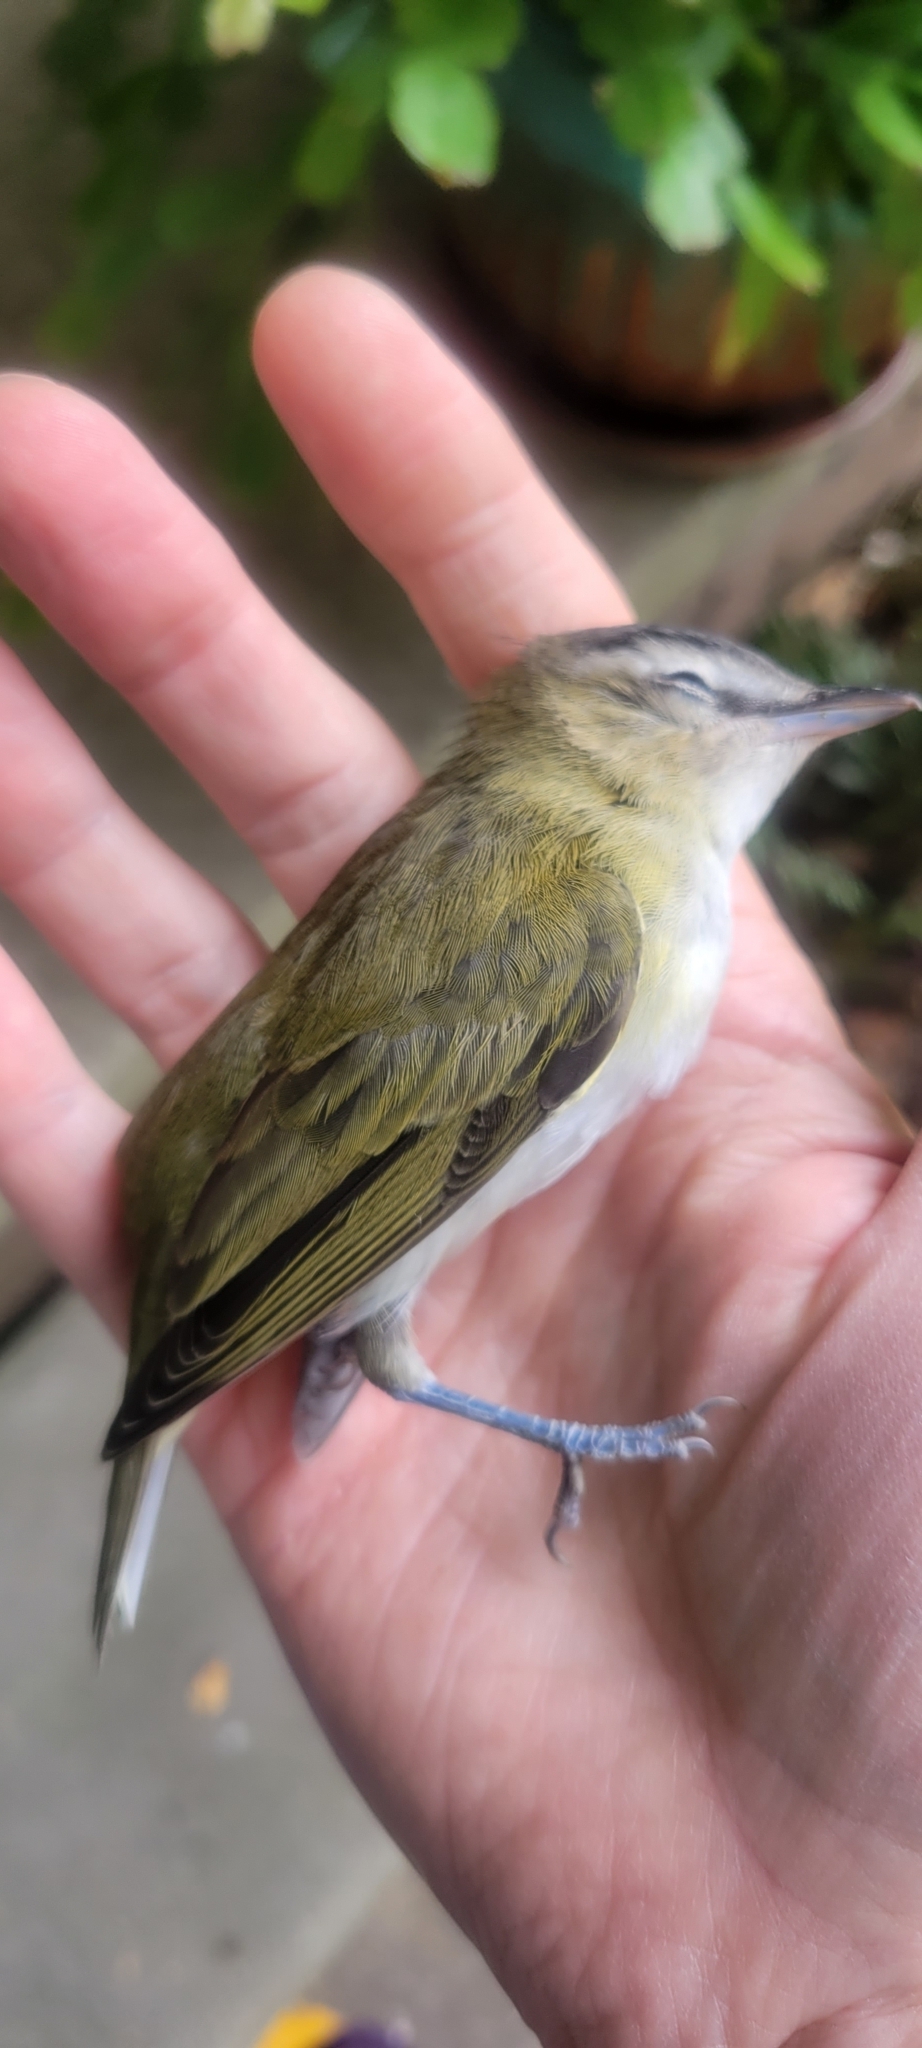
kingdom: Animalia
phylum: Chordata
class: Aves
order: Passeriformes
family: Vireonidae
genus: Vireo
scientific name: Vireo olivaceus
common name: Red-eyed vireo
